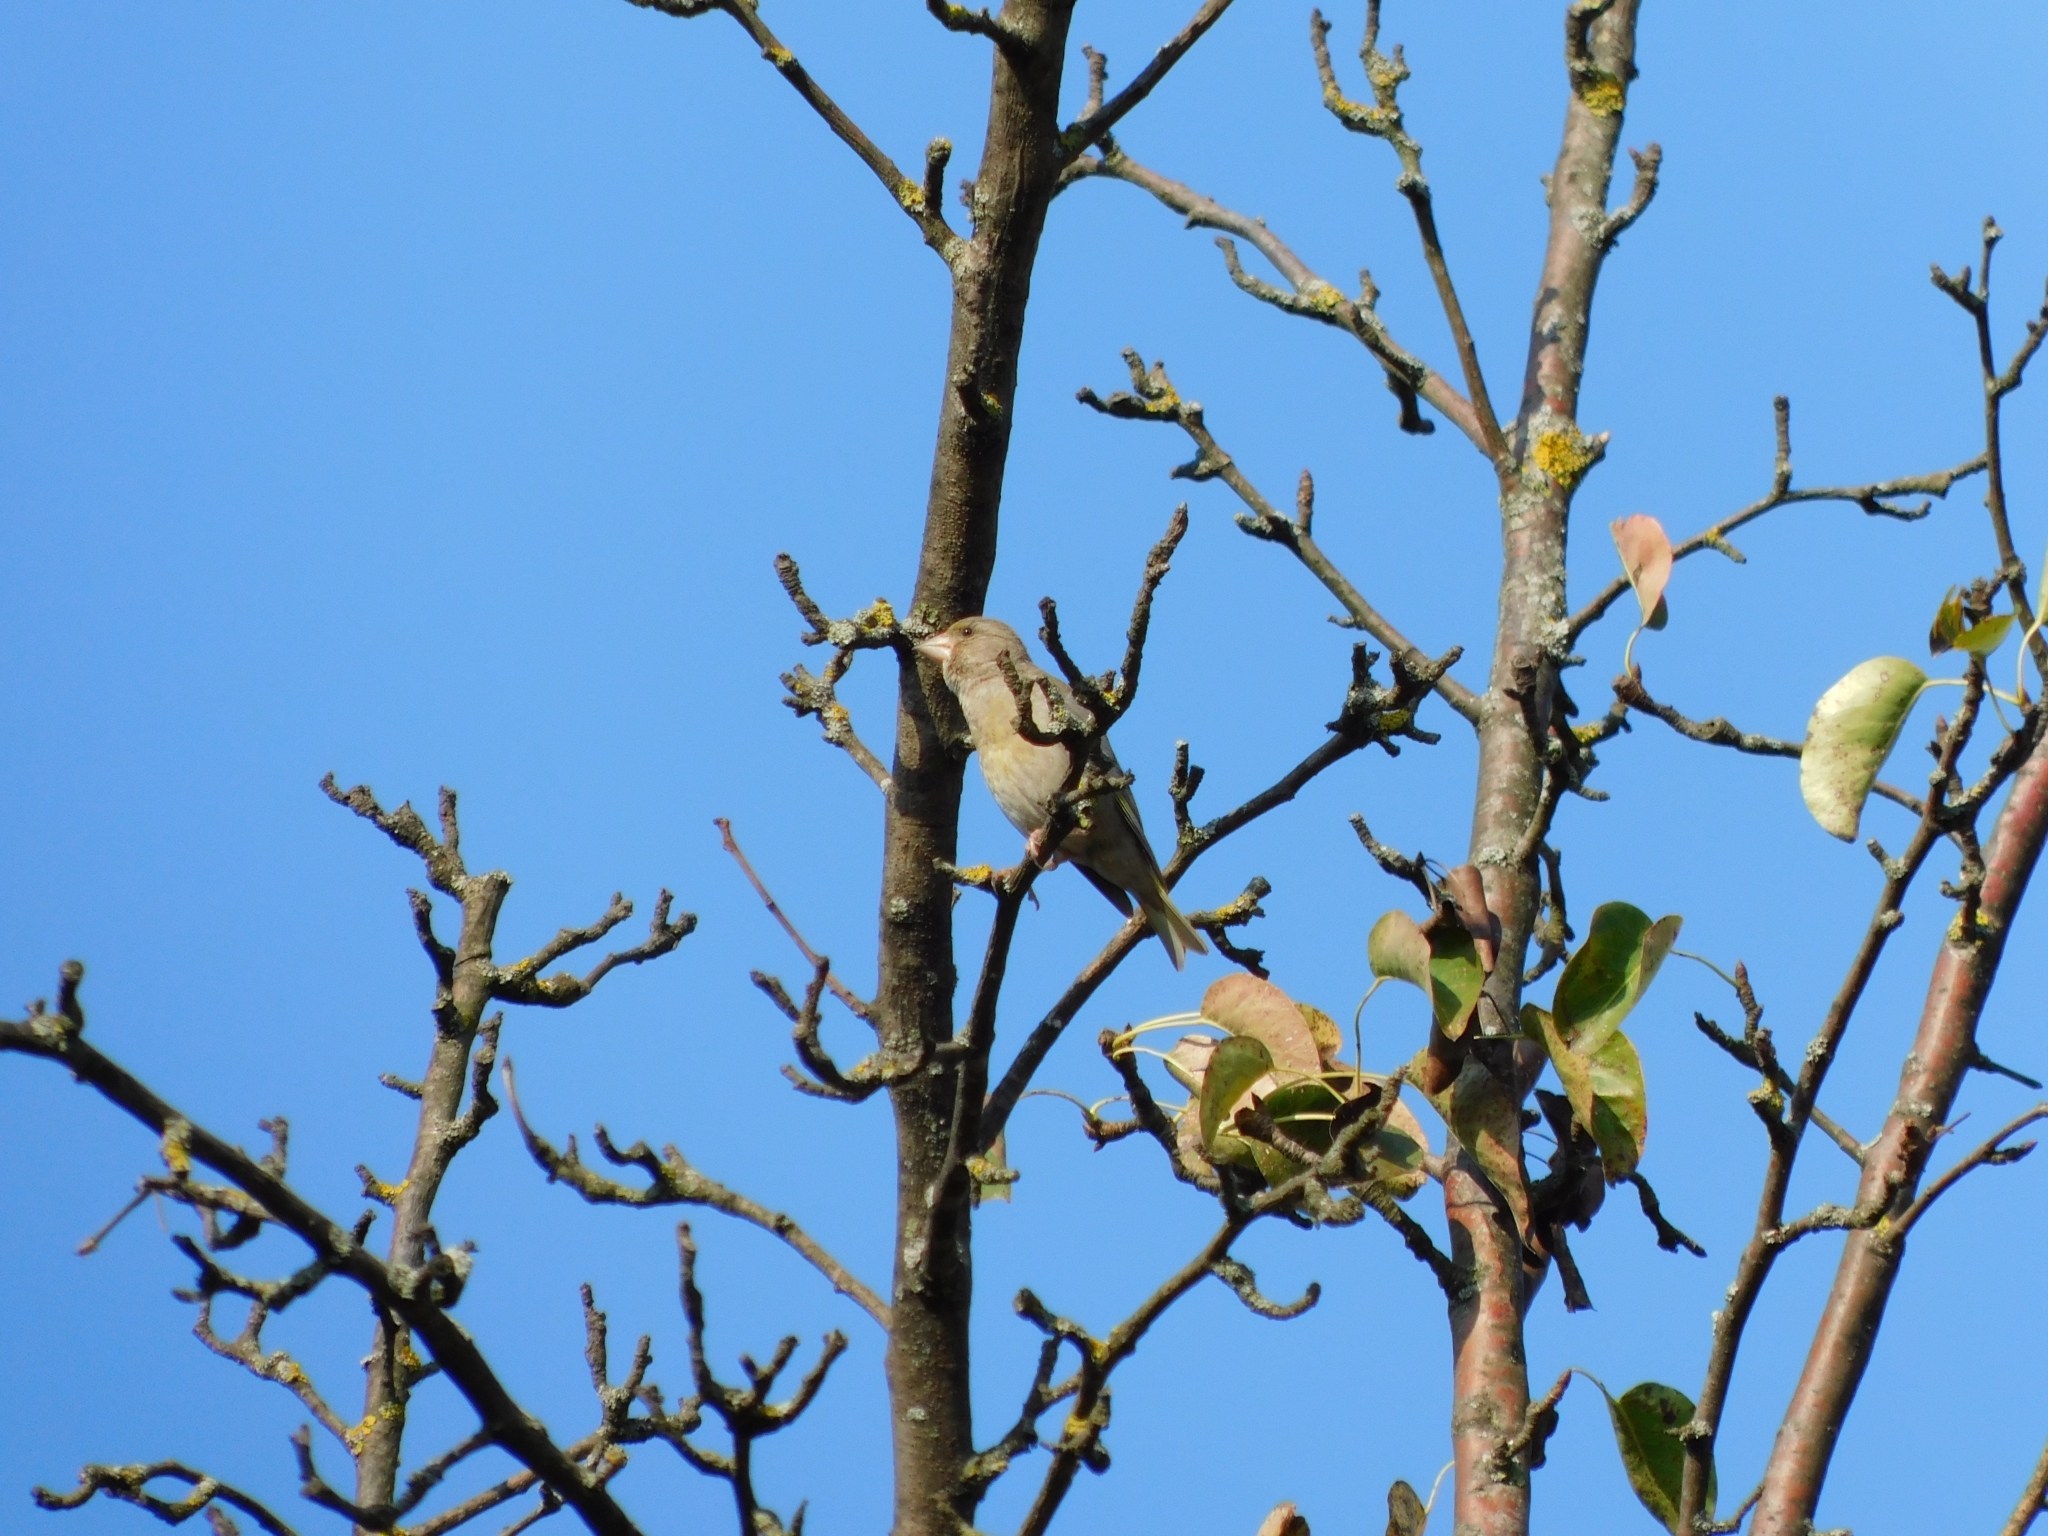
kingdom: Plantae
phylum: Tracheophyta
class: Liliopsida
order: Poales
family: Poaceae
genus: Chloris
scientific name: Chloris chloris
